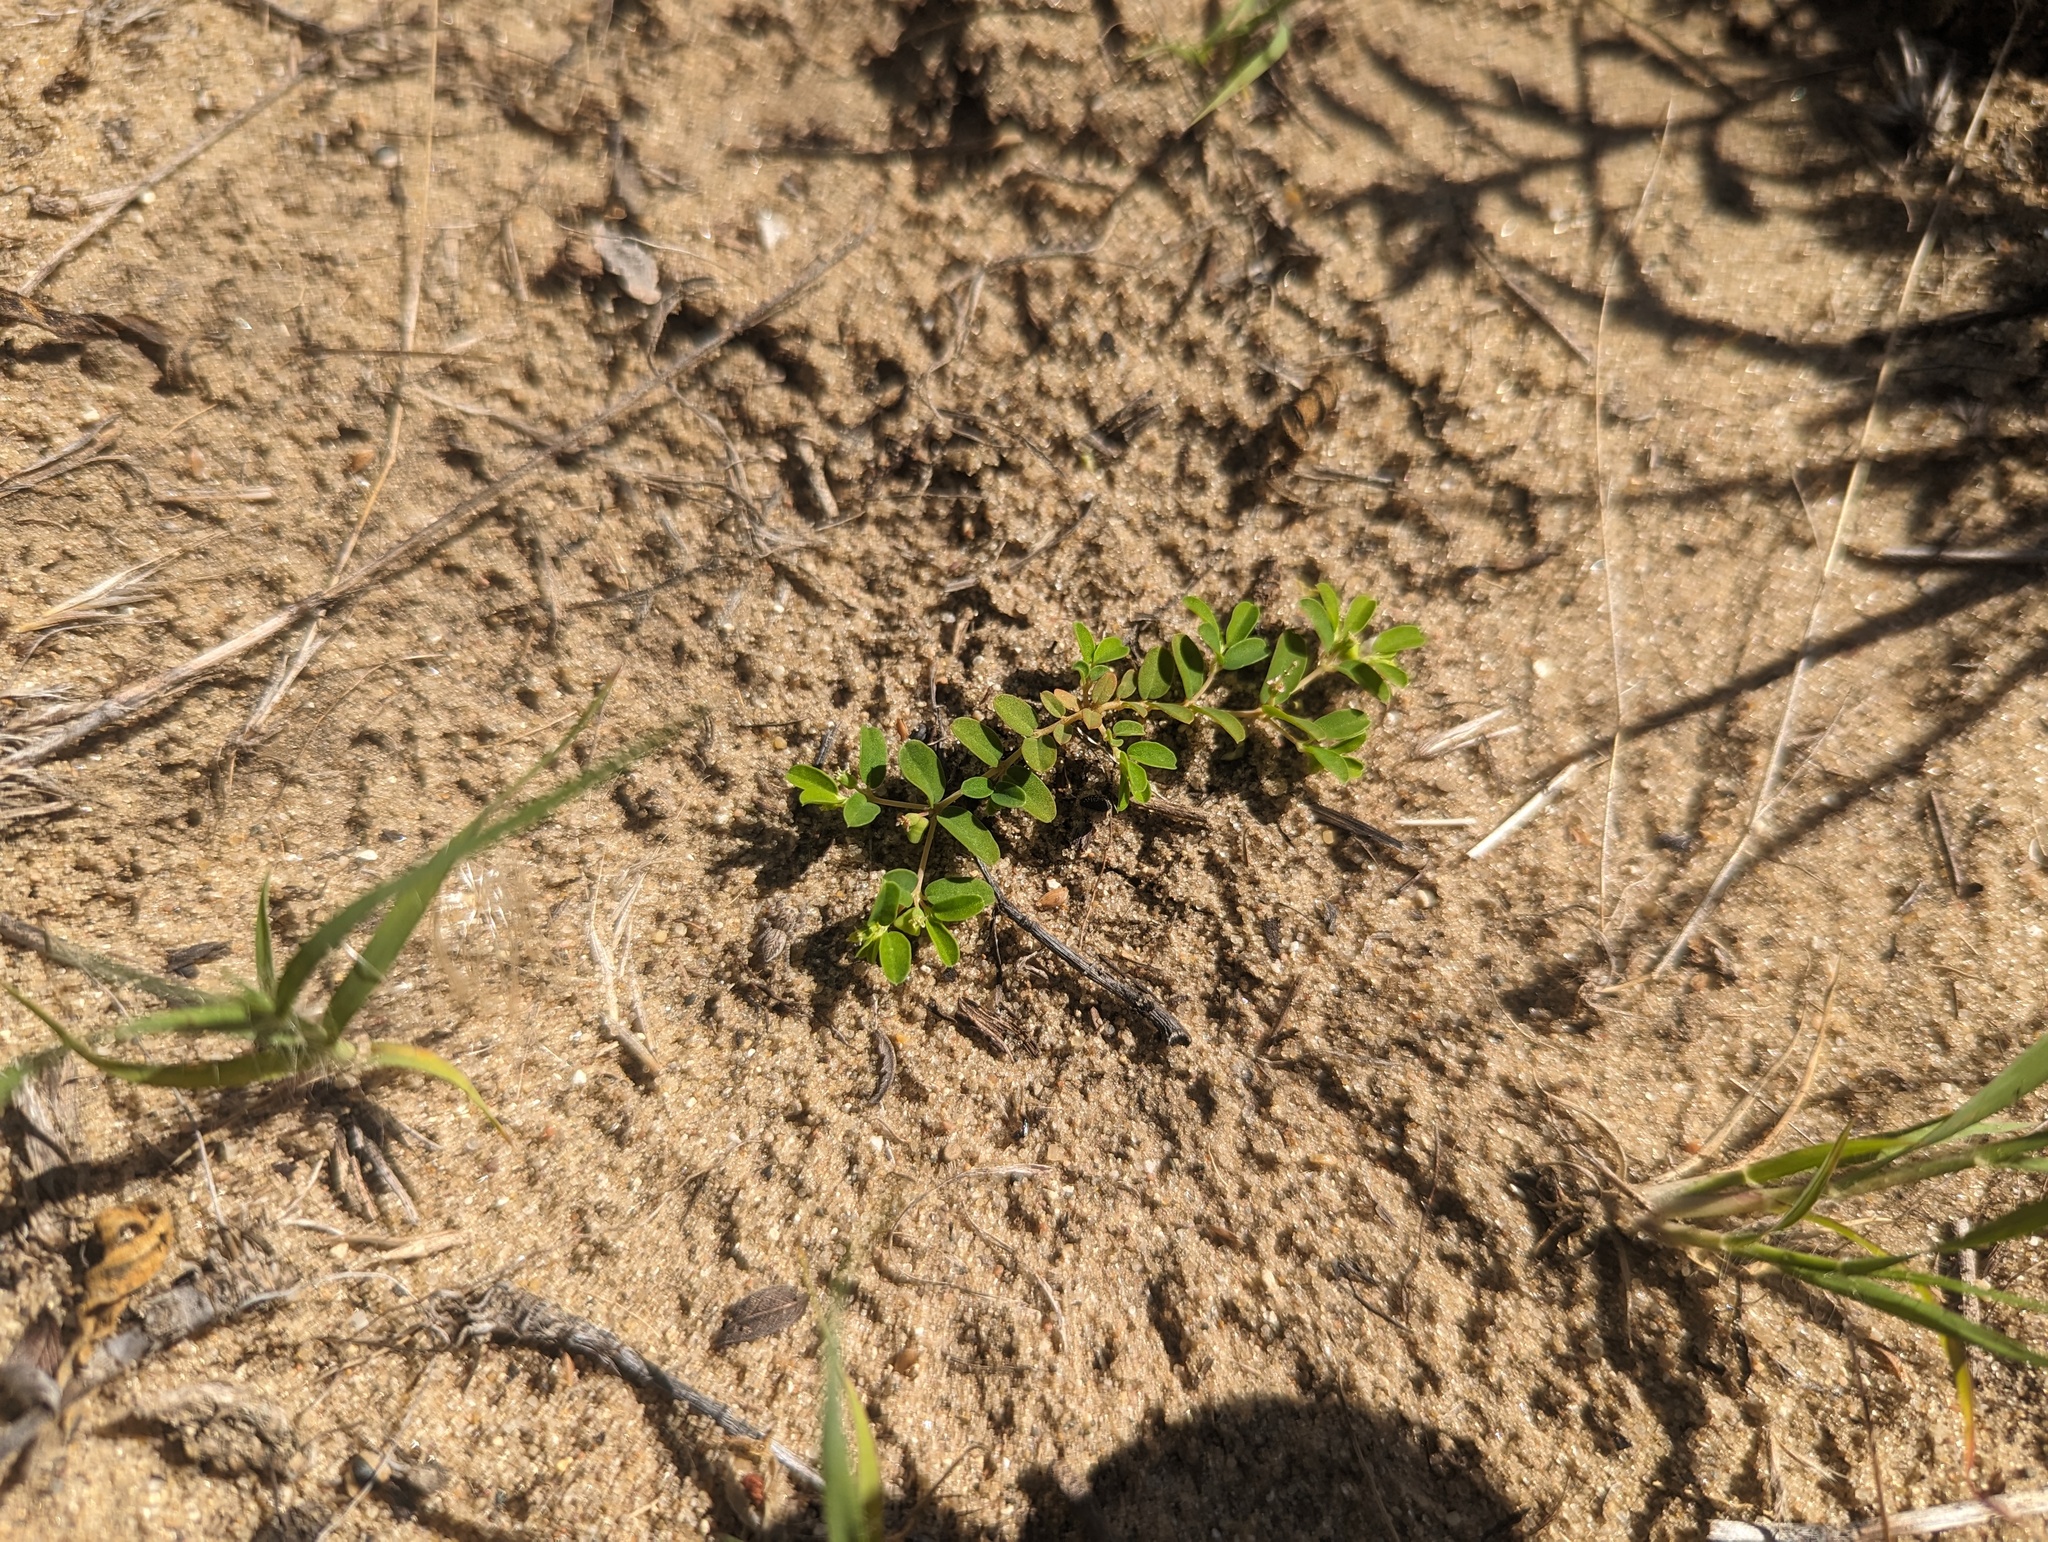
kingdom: Plantae
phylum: Tracheophyta
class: Magnoliopsida
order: Malpighiales
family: Euphorbiaceae
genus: Euphorbia
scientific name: Euphorbia geyeri
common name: Geyer's spurge
